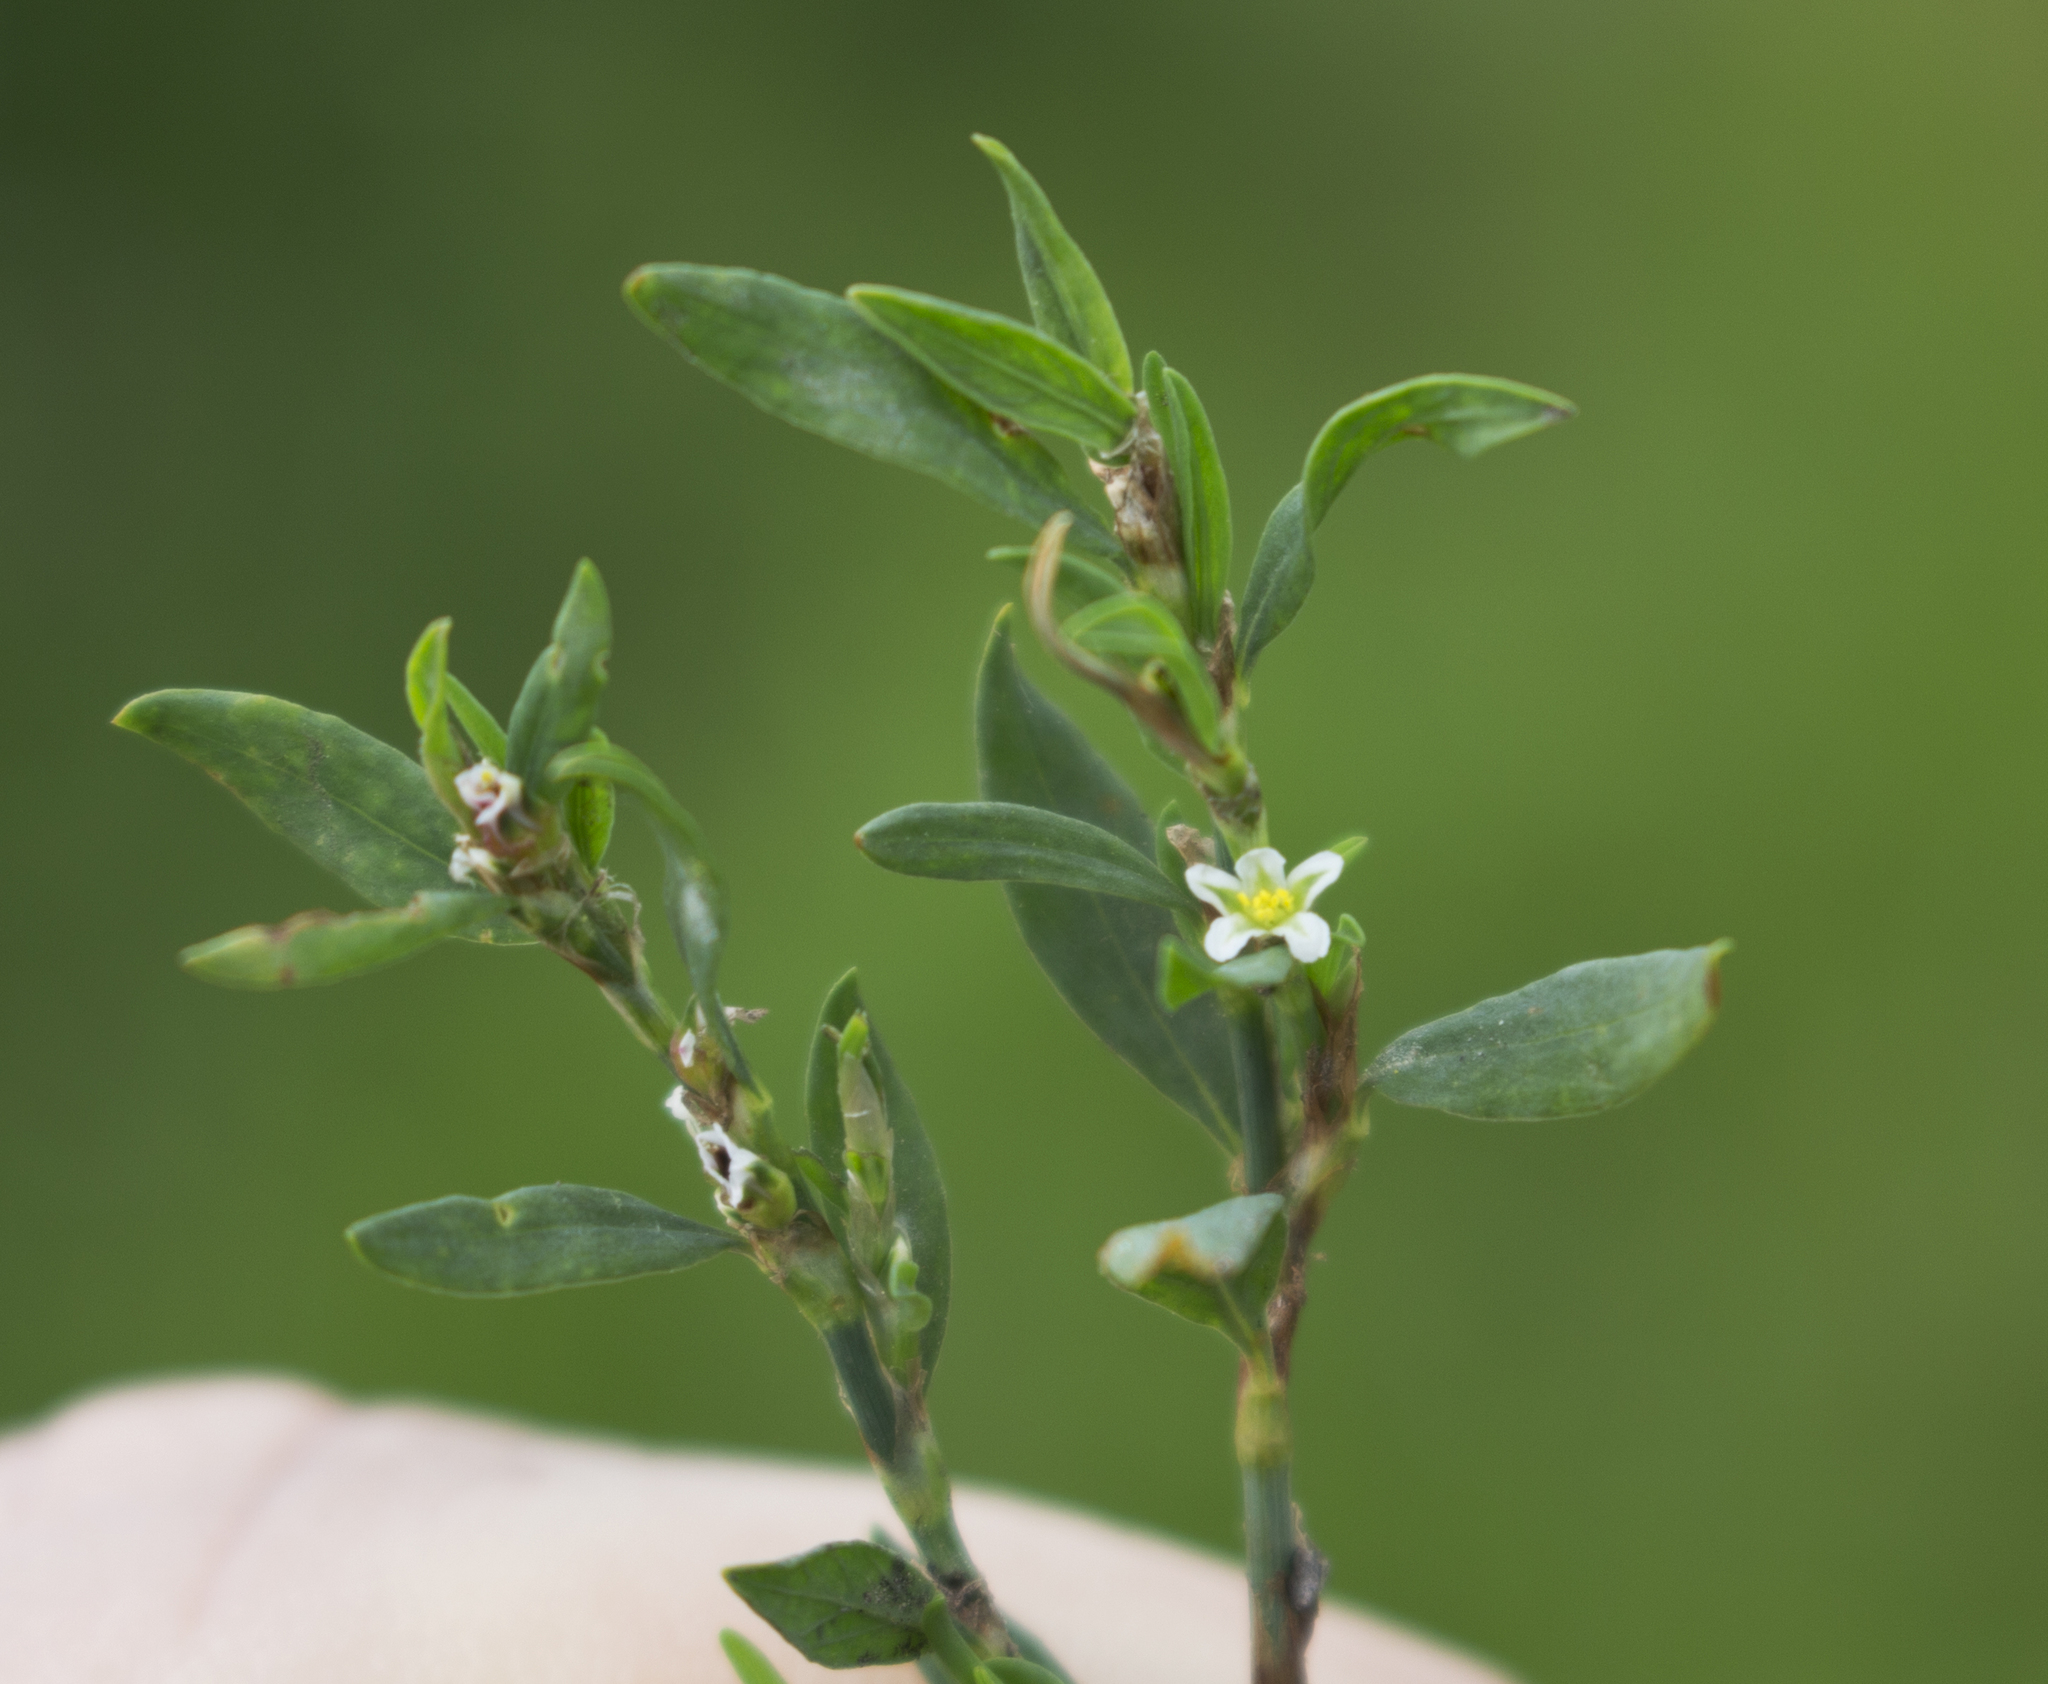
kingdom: Plantae
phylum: Tracheophyta
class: Magnoliopsida
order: Caryophyllales
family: Polygonaceae
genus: Polygonum
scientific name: Polygonum aviculare
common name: Prostrate knotweed
